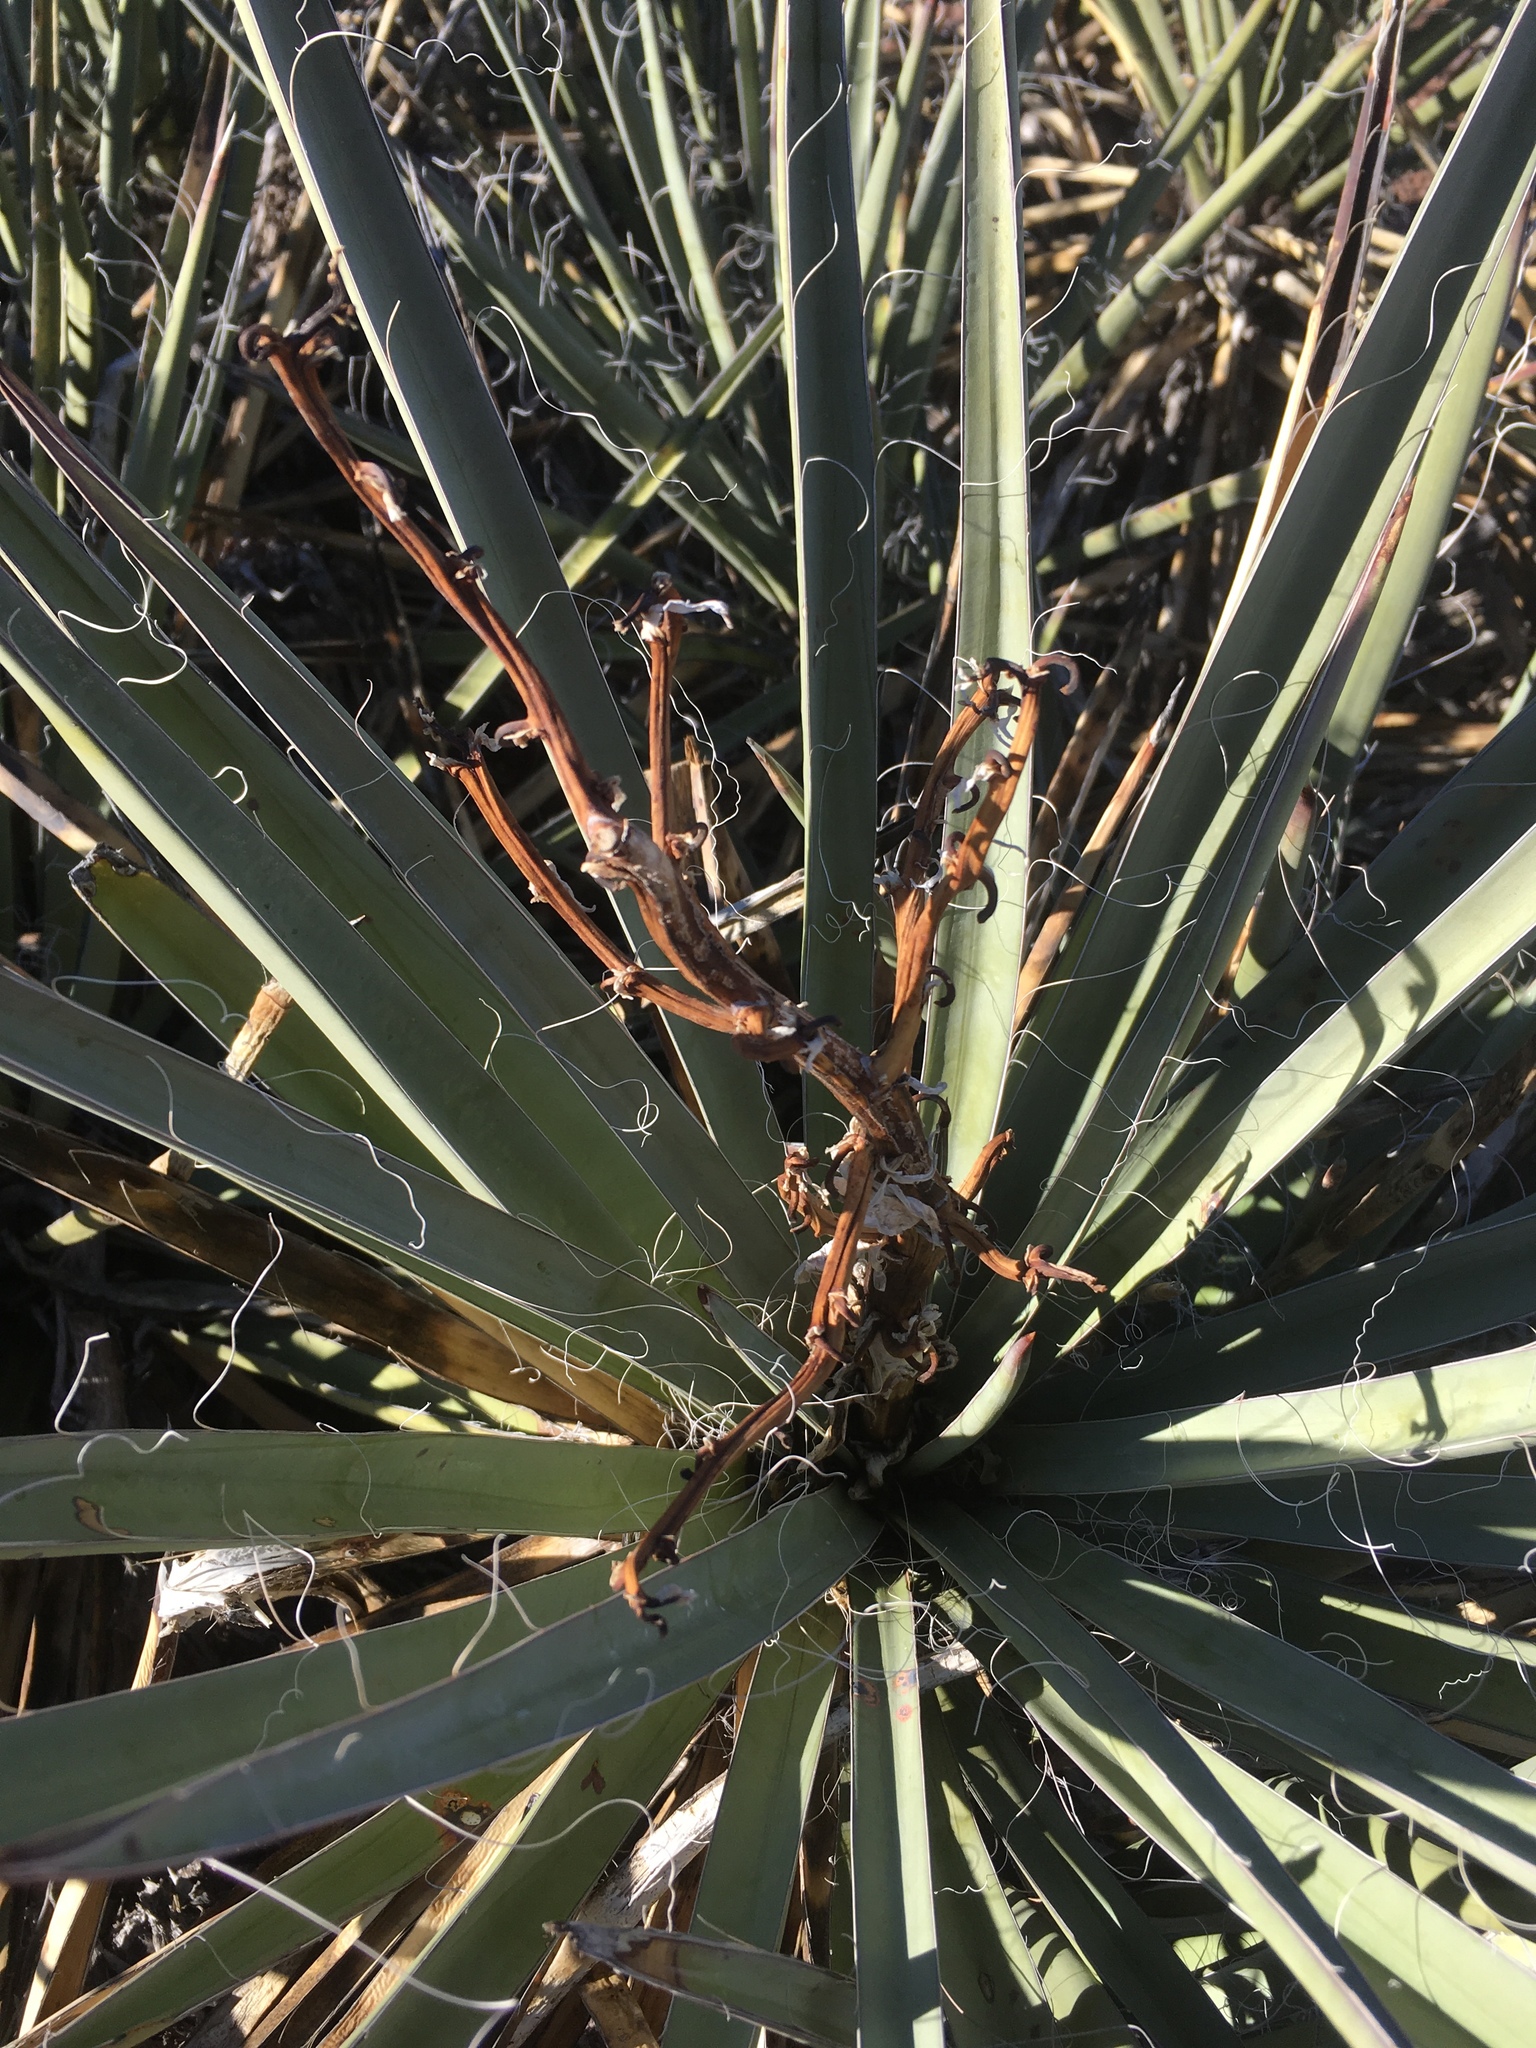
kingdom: Plantae
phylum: Tracheophyta
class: Liliopsida
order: Asparagales
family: Asparagaceae
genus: Yucca
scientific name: Yucca baccata
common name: Banana yucca
